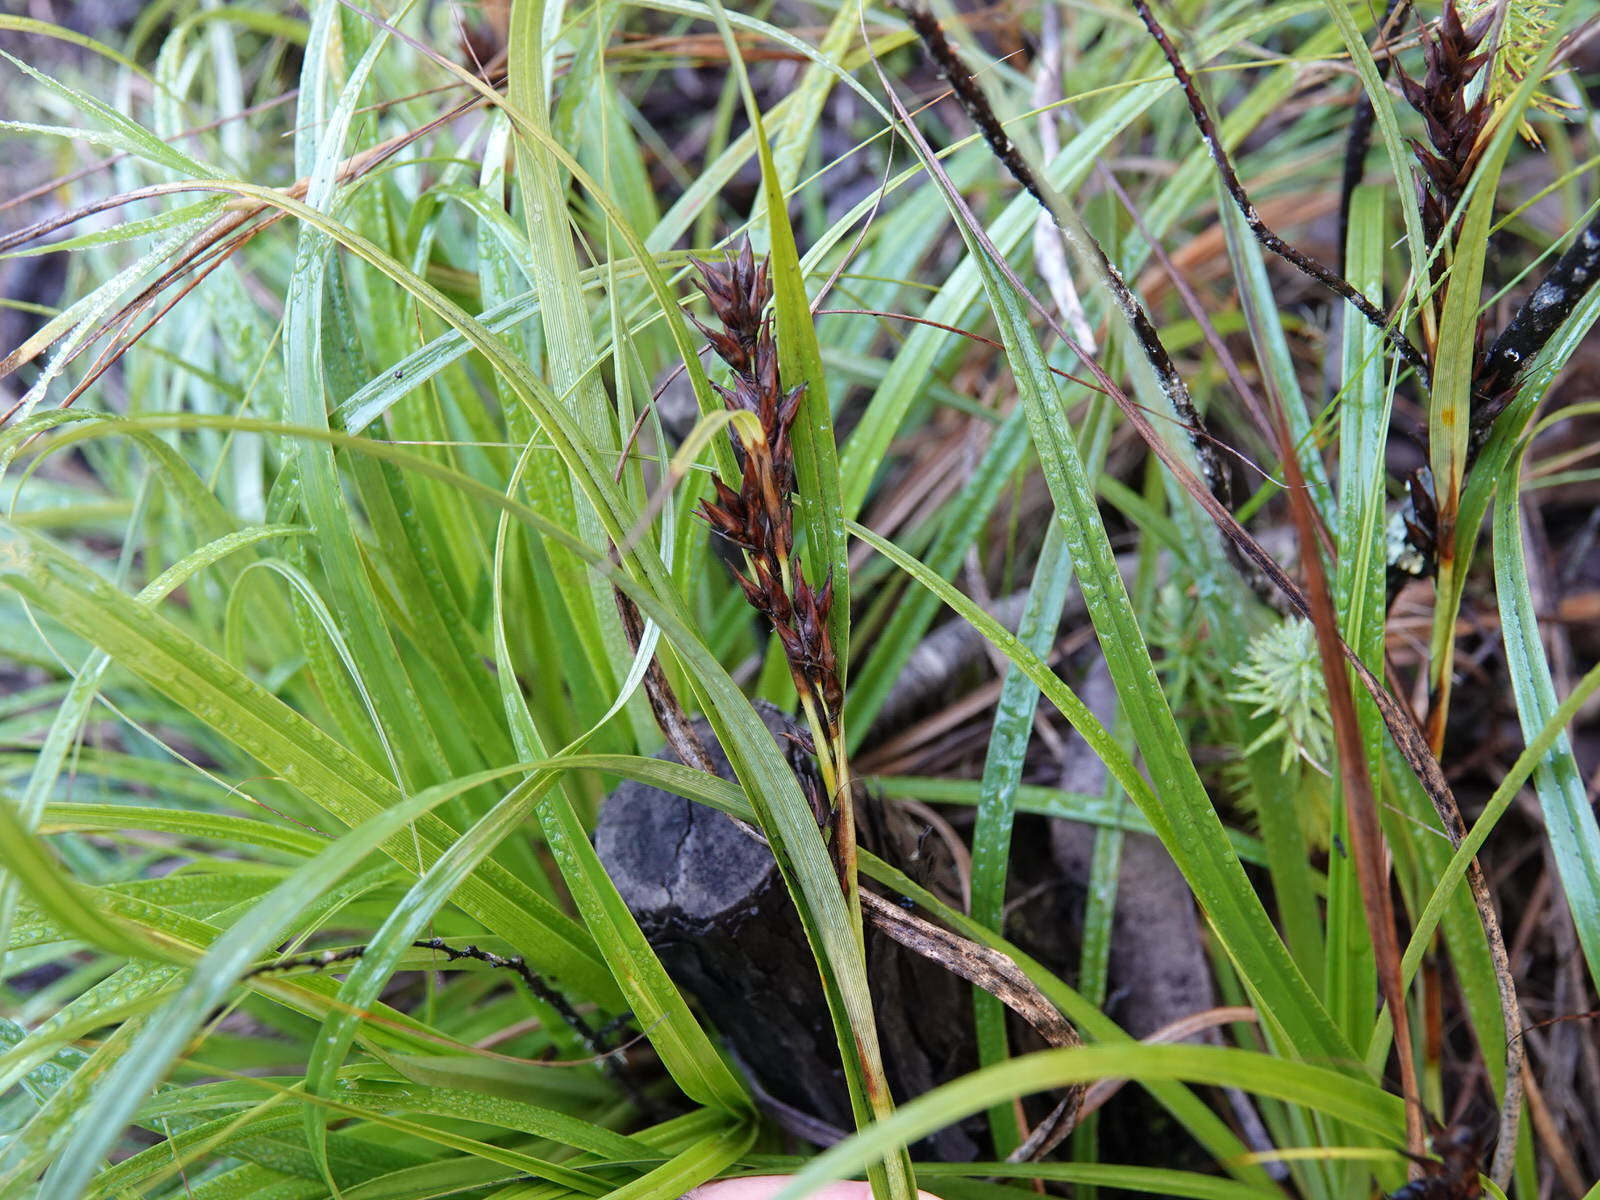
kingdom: Plantae
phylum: Tracheophyta
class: Liliopsida
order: Poales
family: Cyperaceae
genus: Morelotia
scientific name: Morelotia affinis
